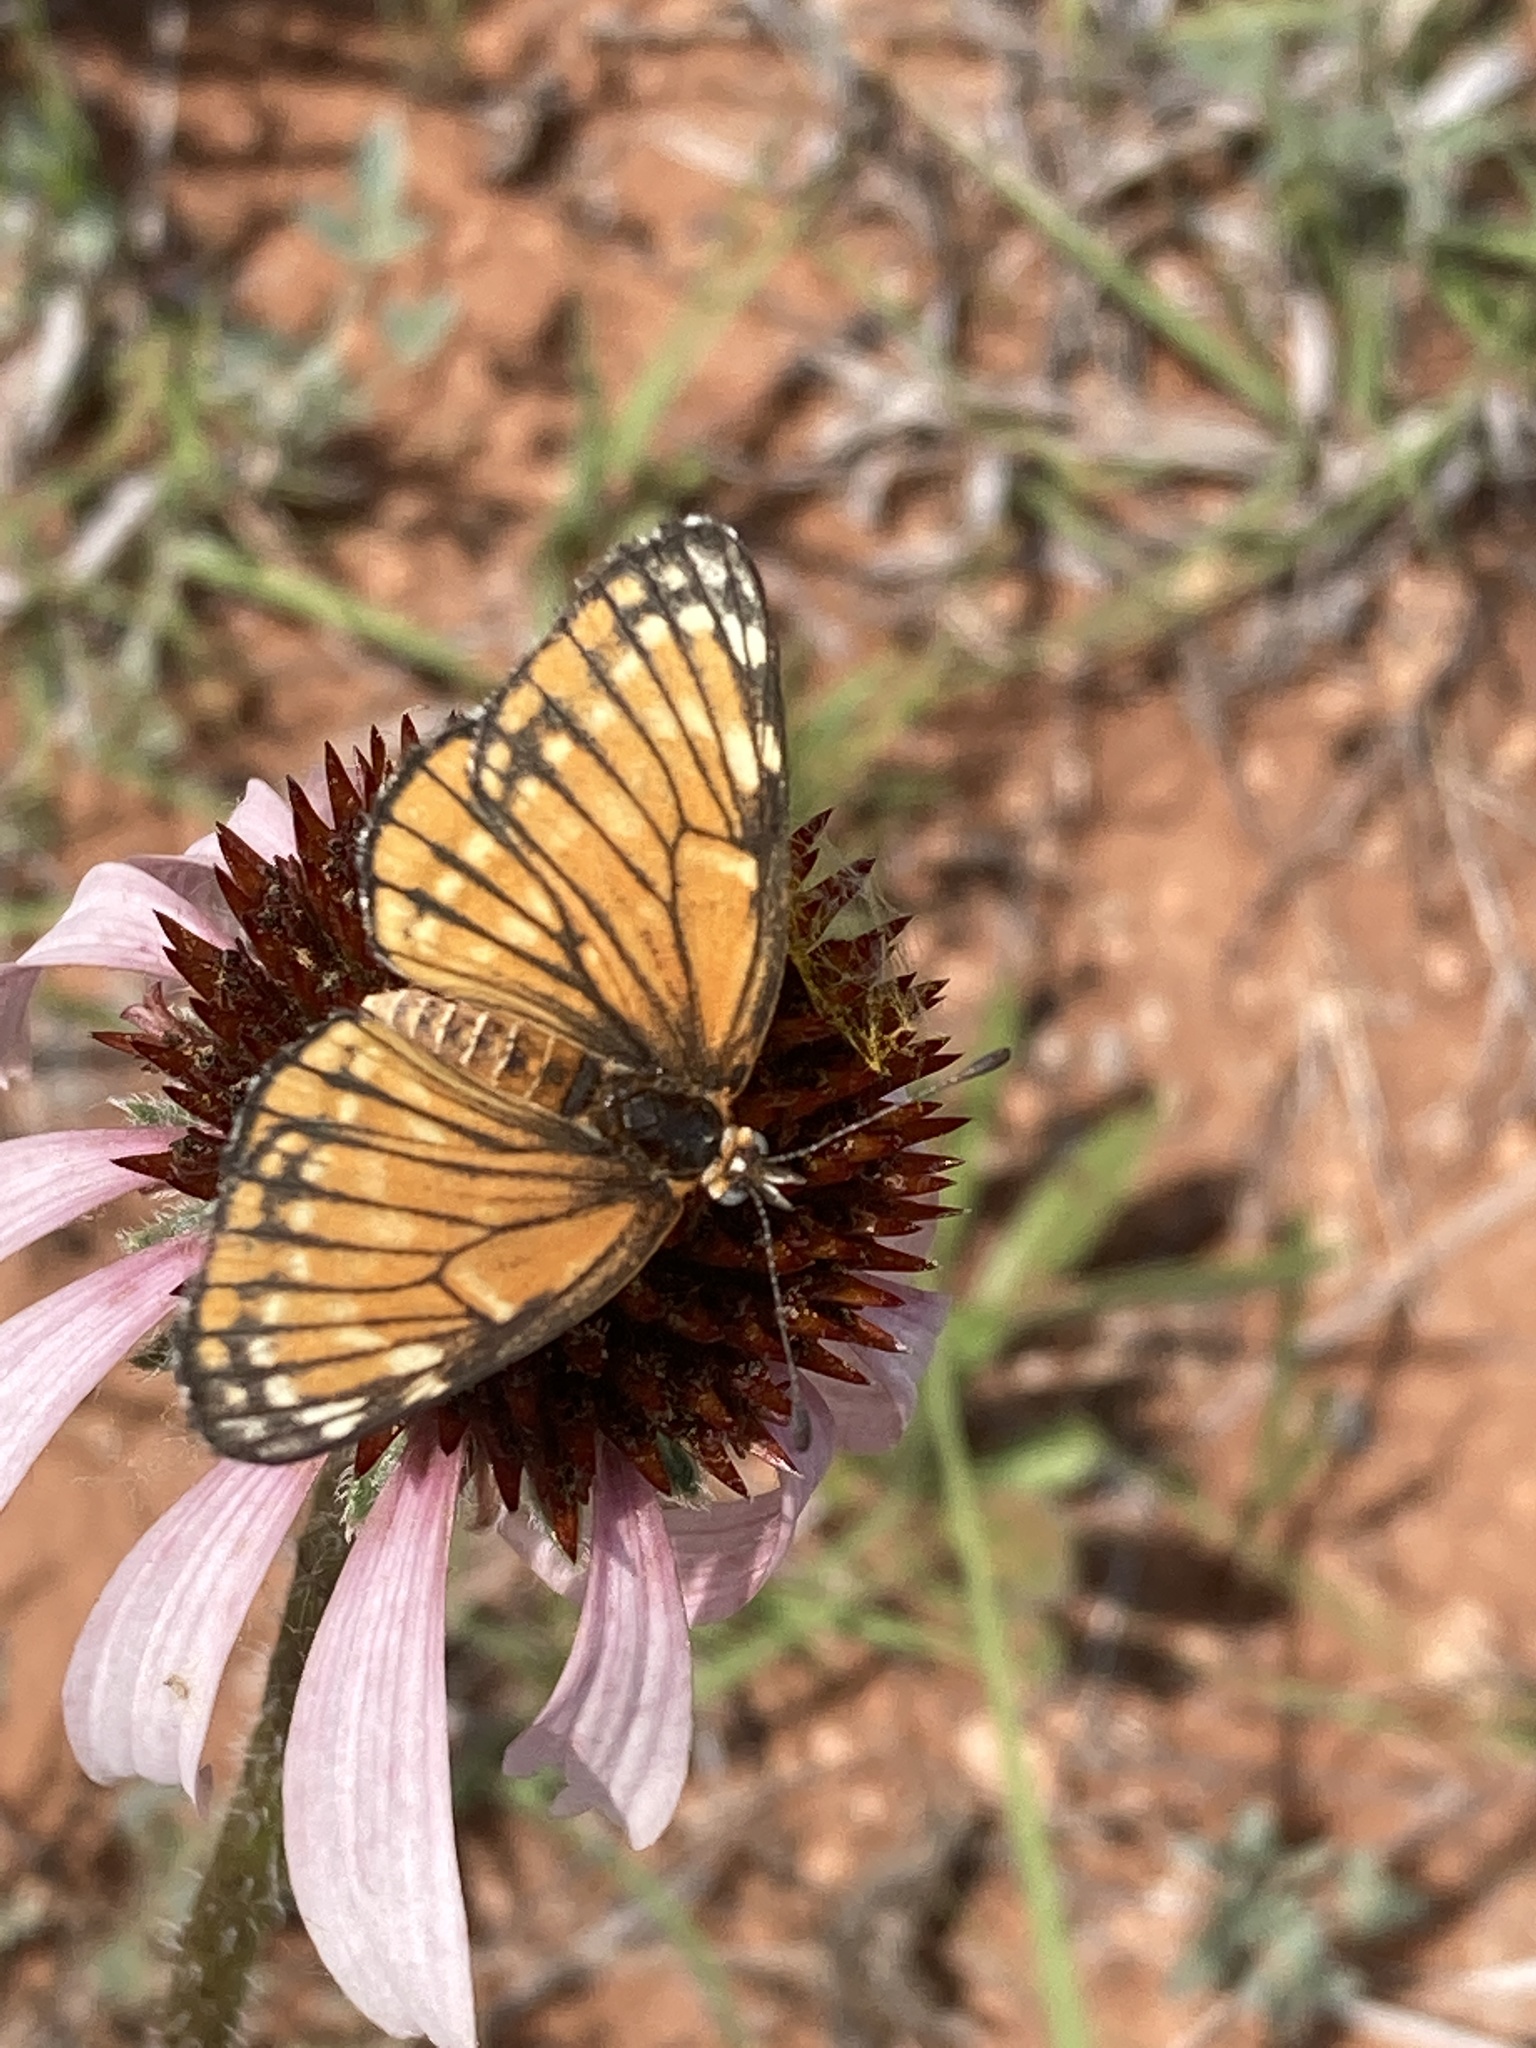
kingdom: Animalia
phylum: Arthropoda
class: Insecta
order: Lepidoptera
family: Nymphalidae
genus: Thessalia
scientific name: Thessalia leanira
